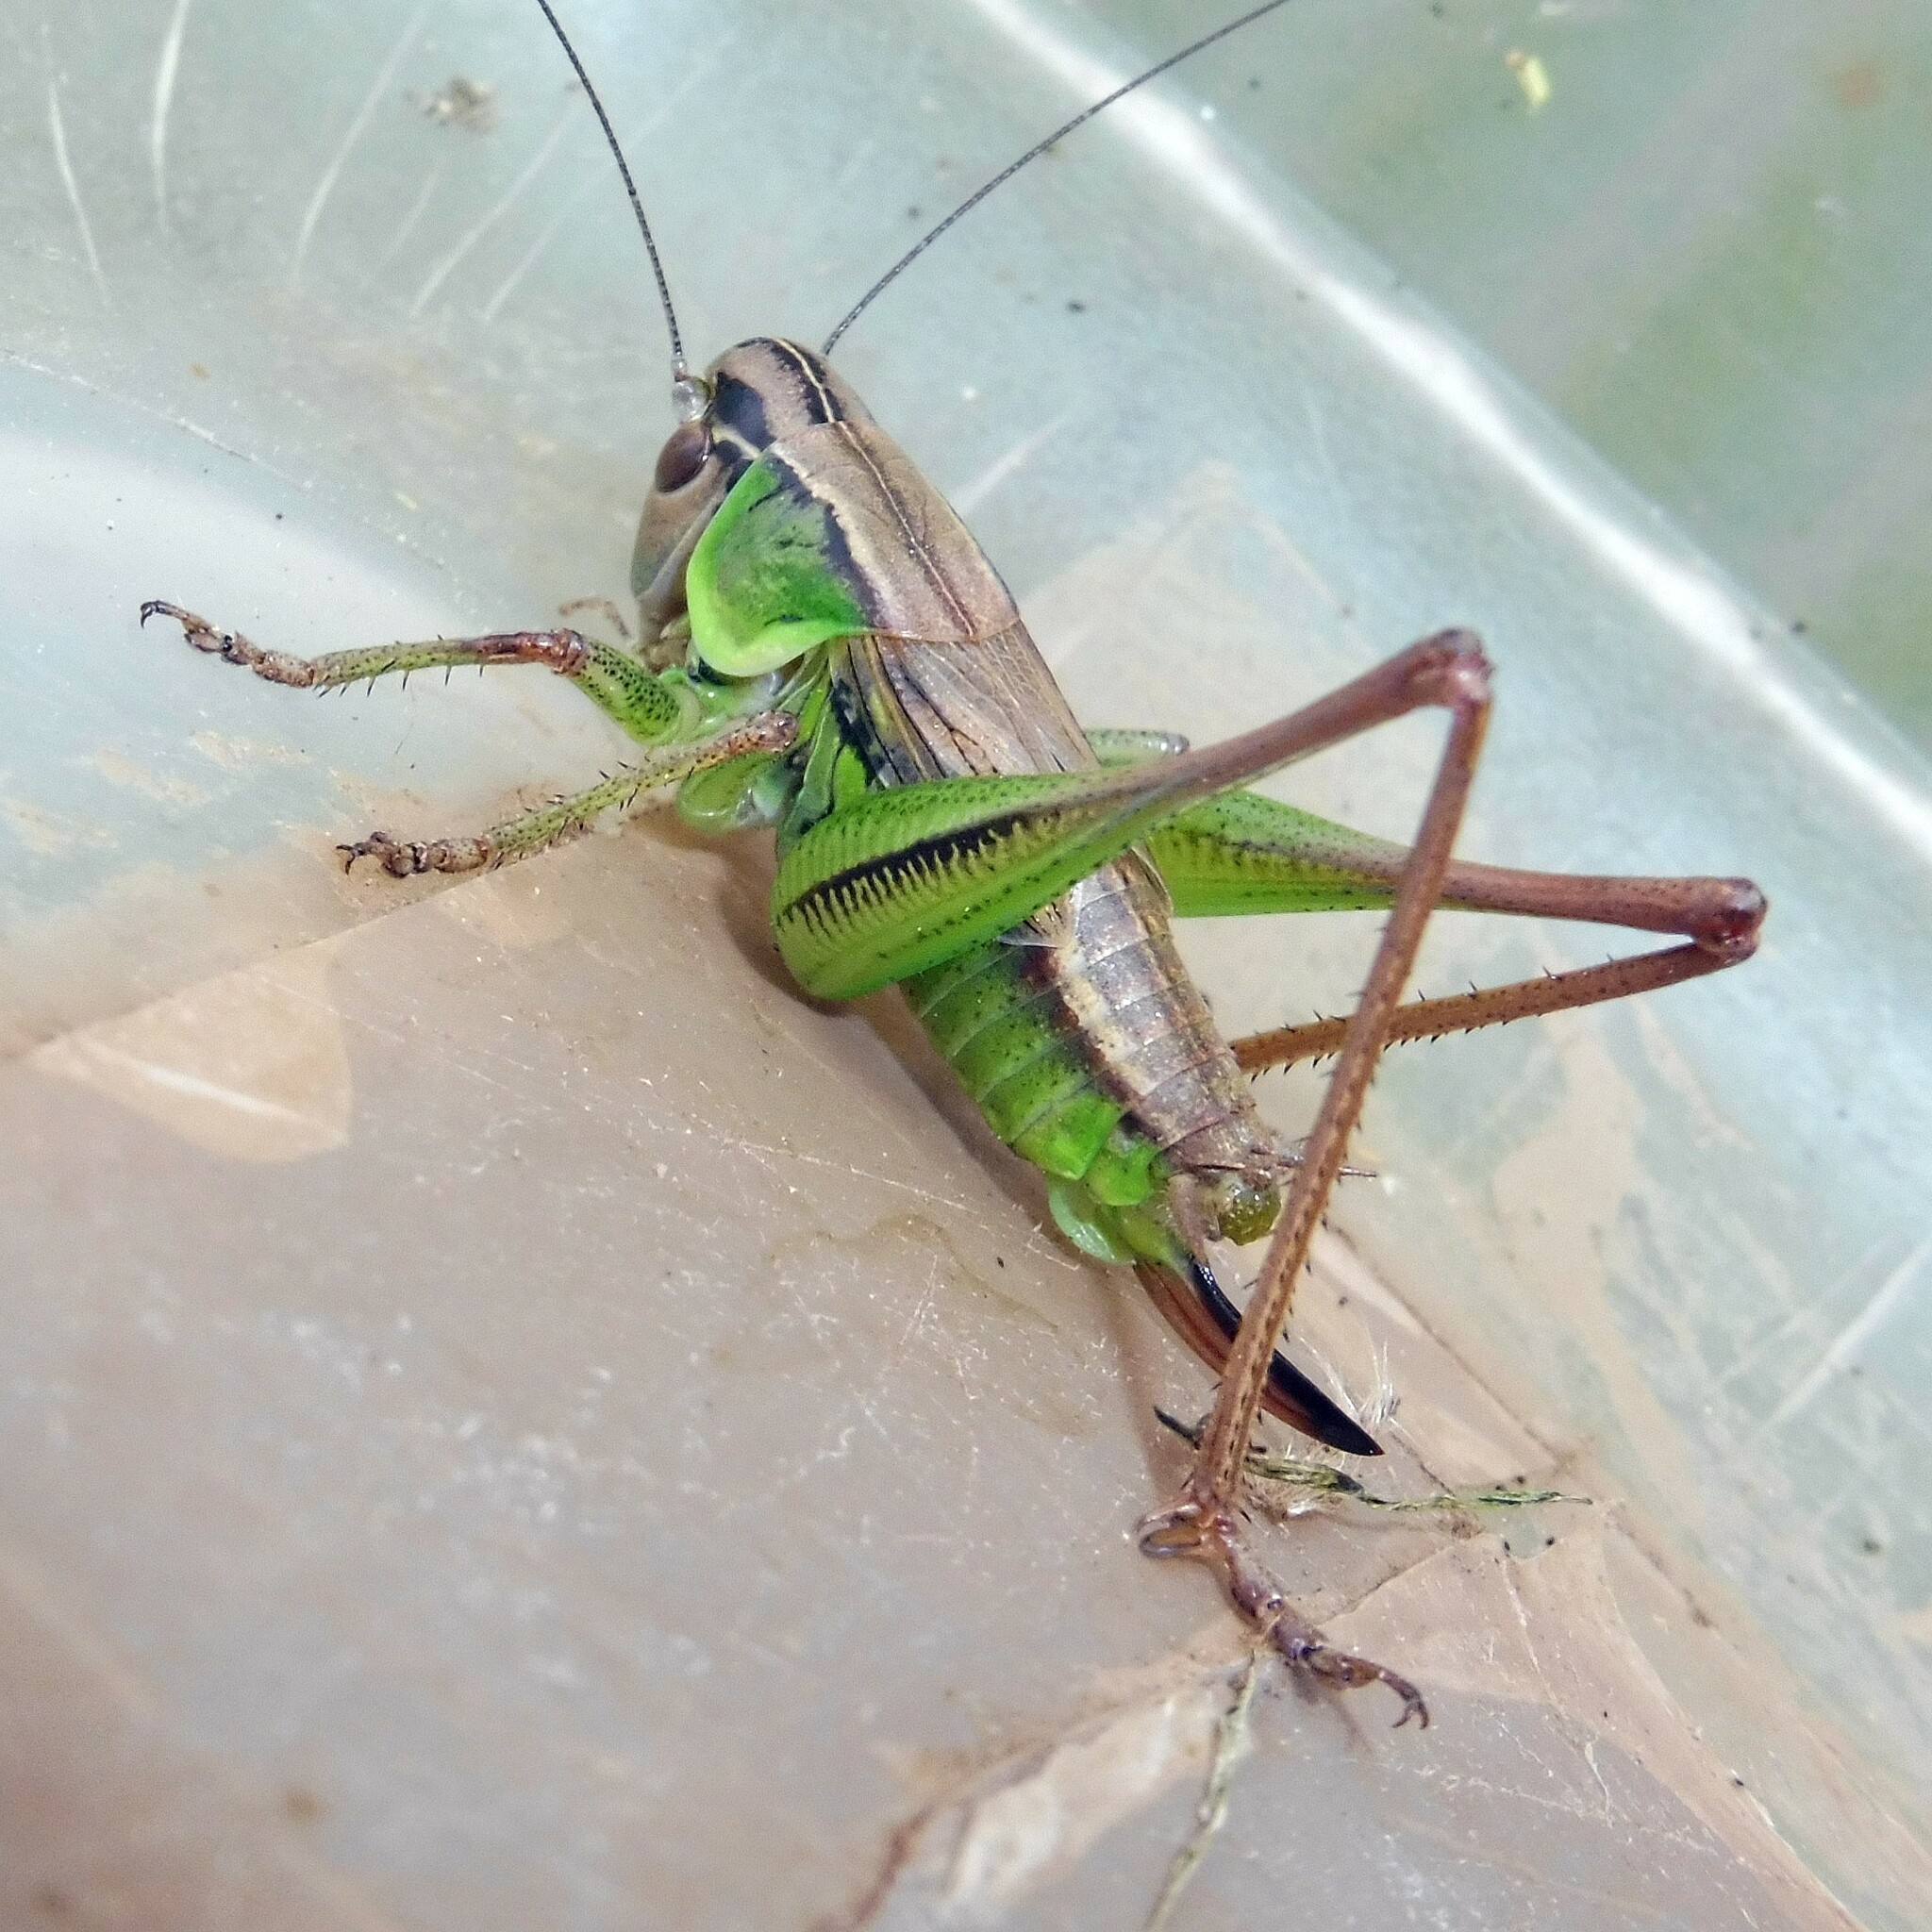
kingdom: Animalia
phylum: Arthropoda
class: Insecta
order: Orthoptera
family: Tettigoniidae
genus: Roeseliana
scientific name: Roeseliana roeselii
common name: Roesel's bush cricket
